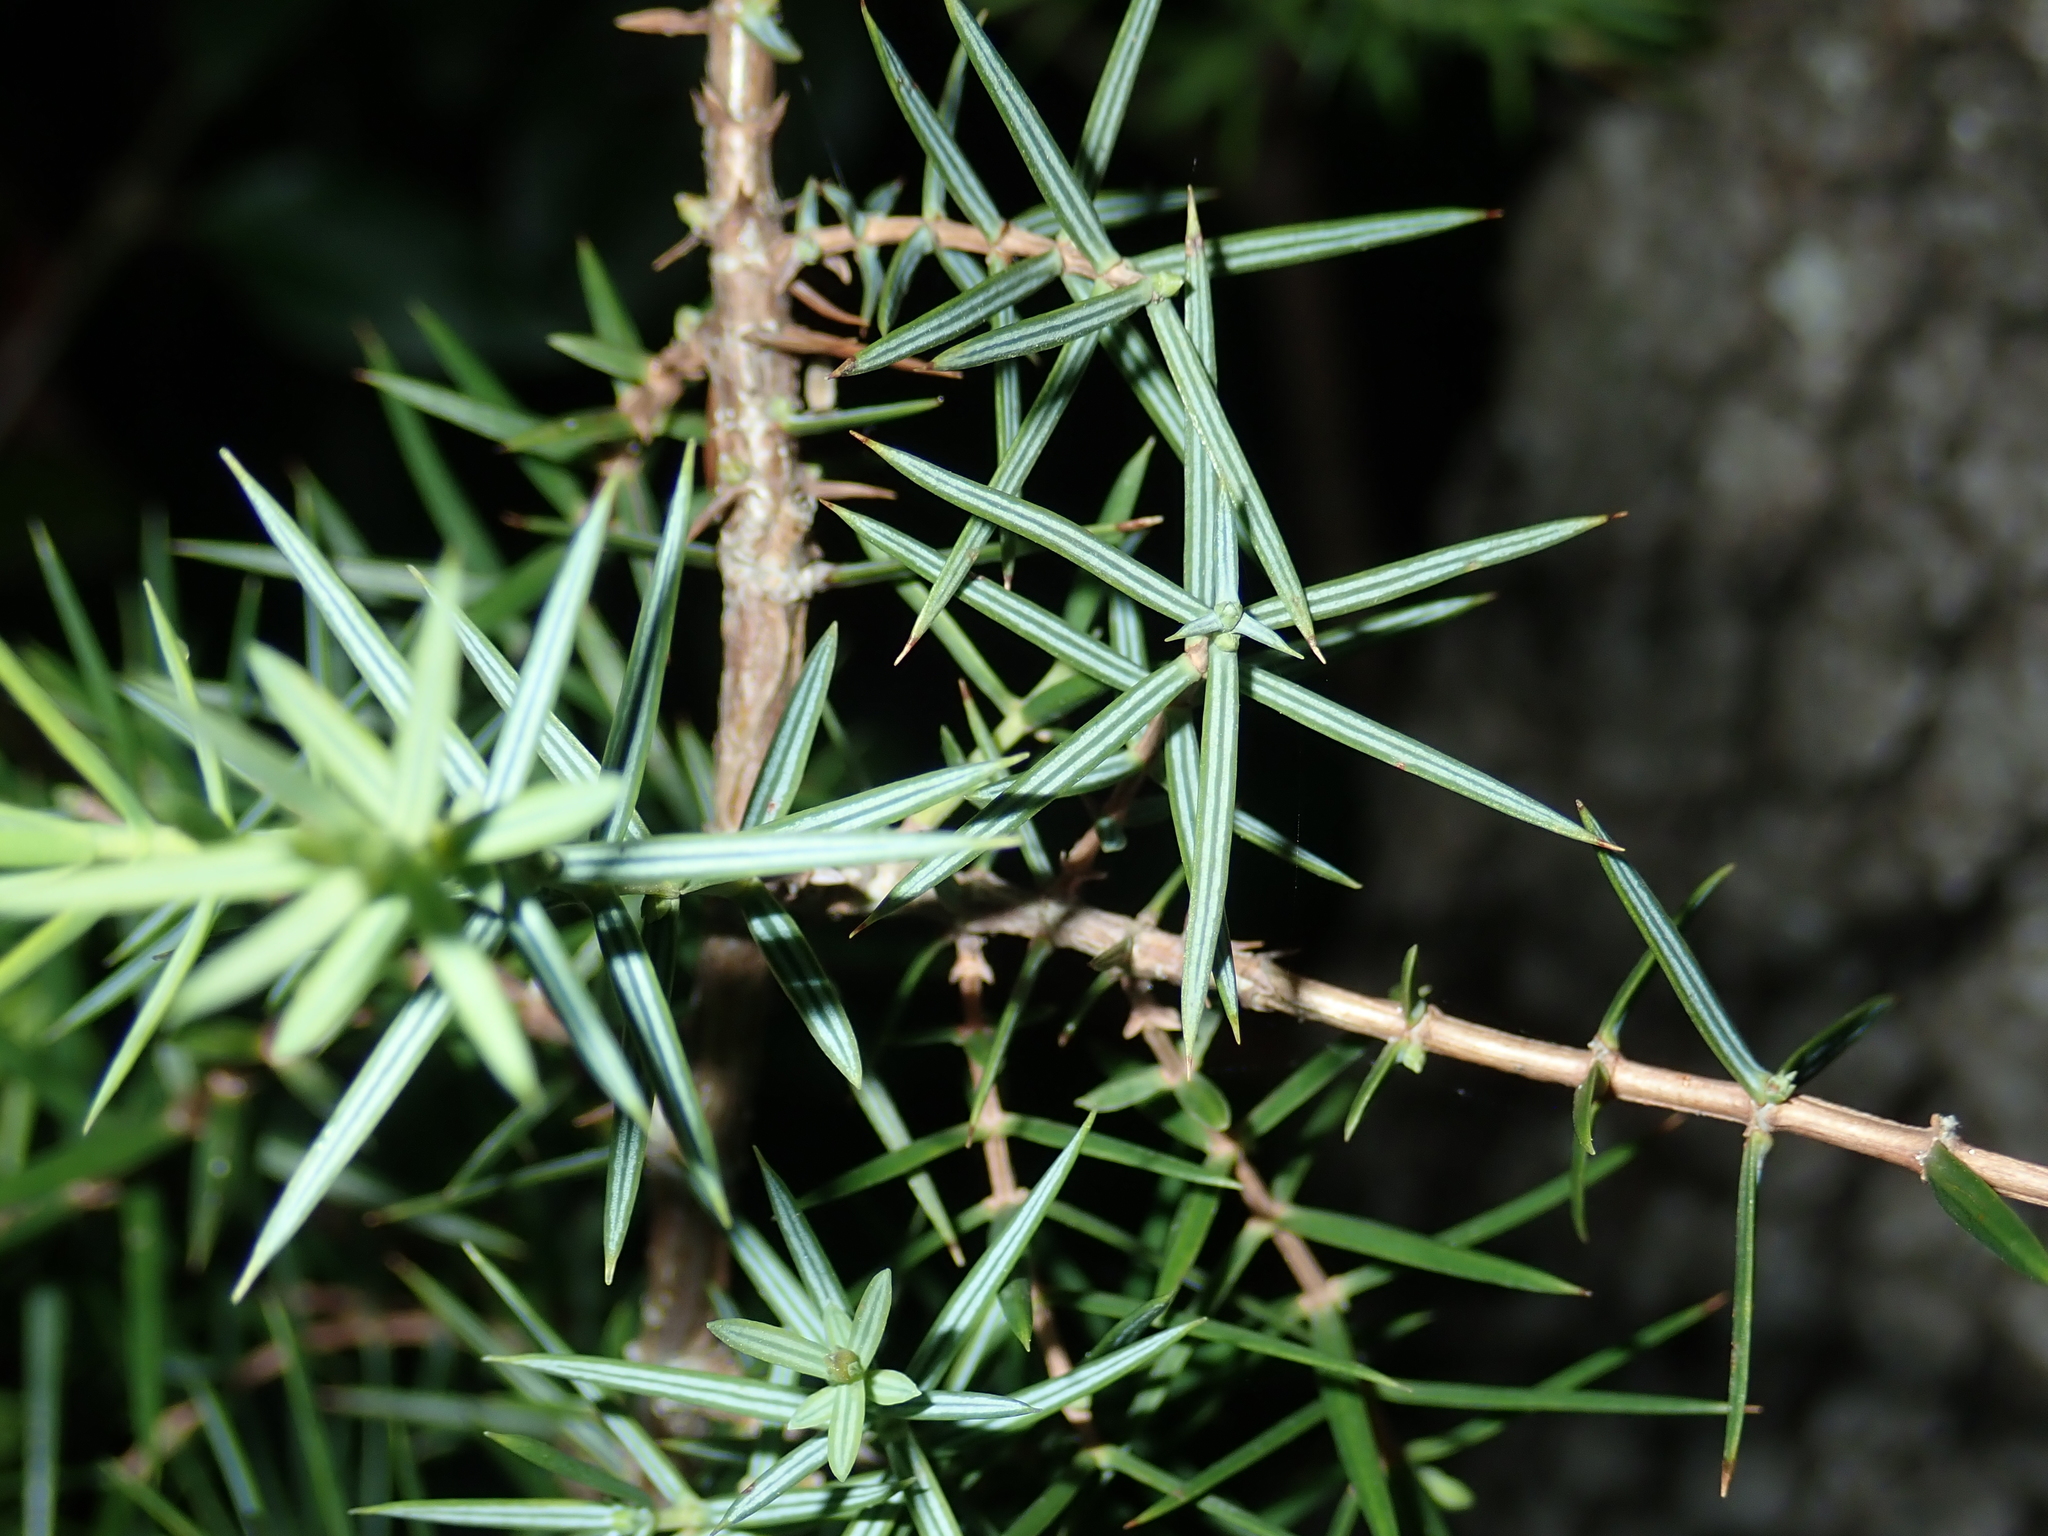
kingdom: Plantae
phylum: Tracheophyta
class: Pinopsida
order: Pinales
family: Cupressaceae
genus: Juniperus
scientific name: Juniperus oxycedrus
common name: Prickly juniper
